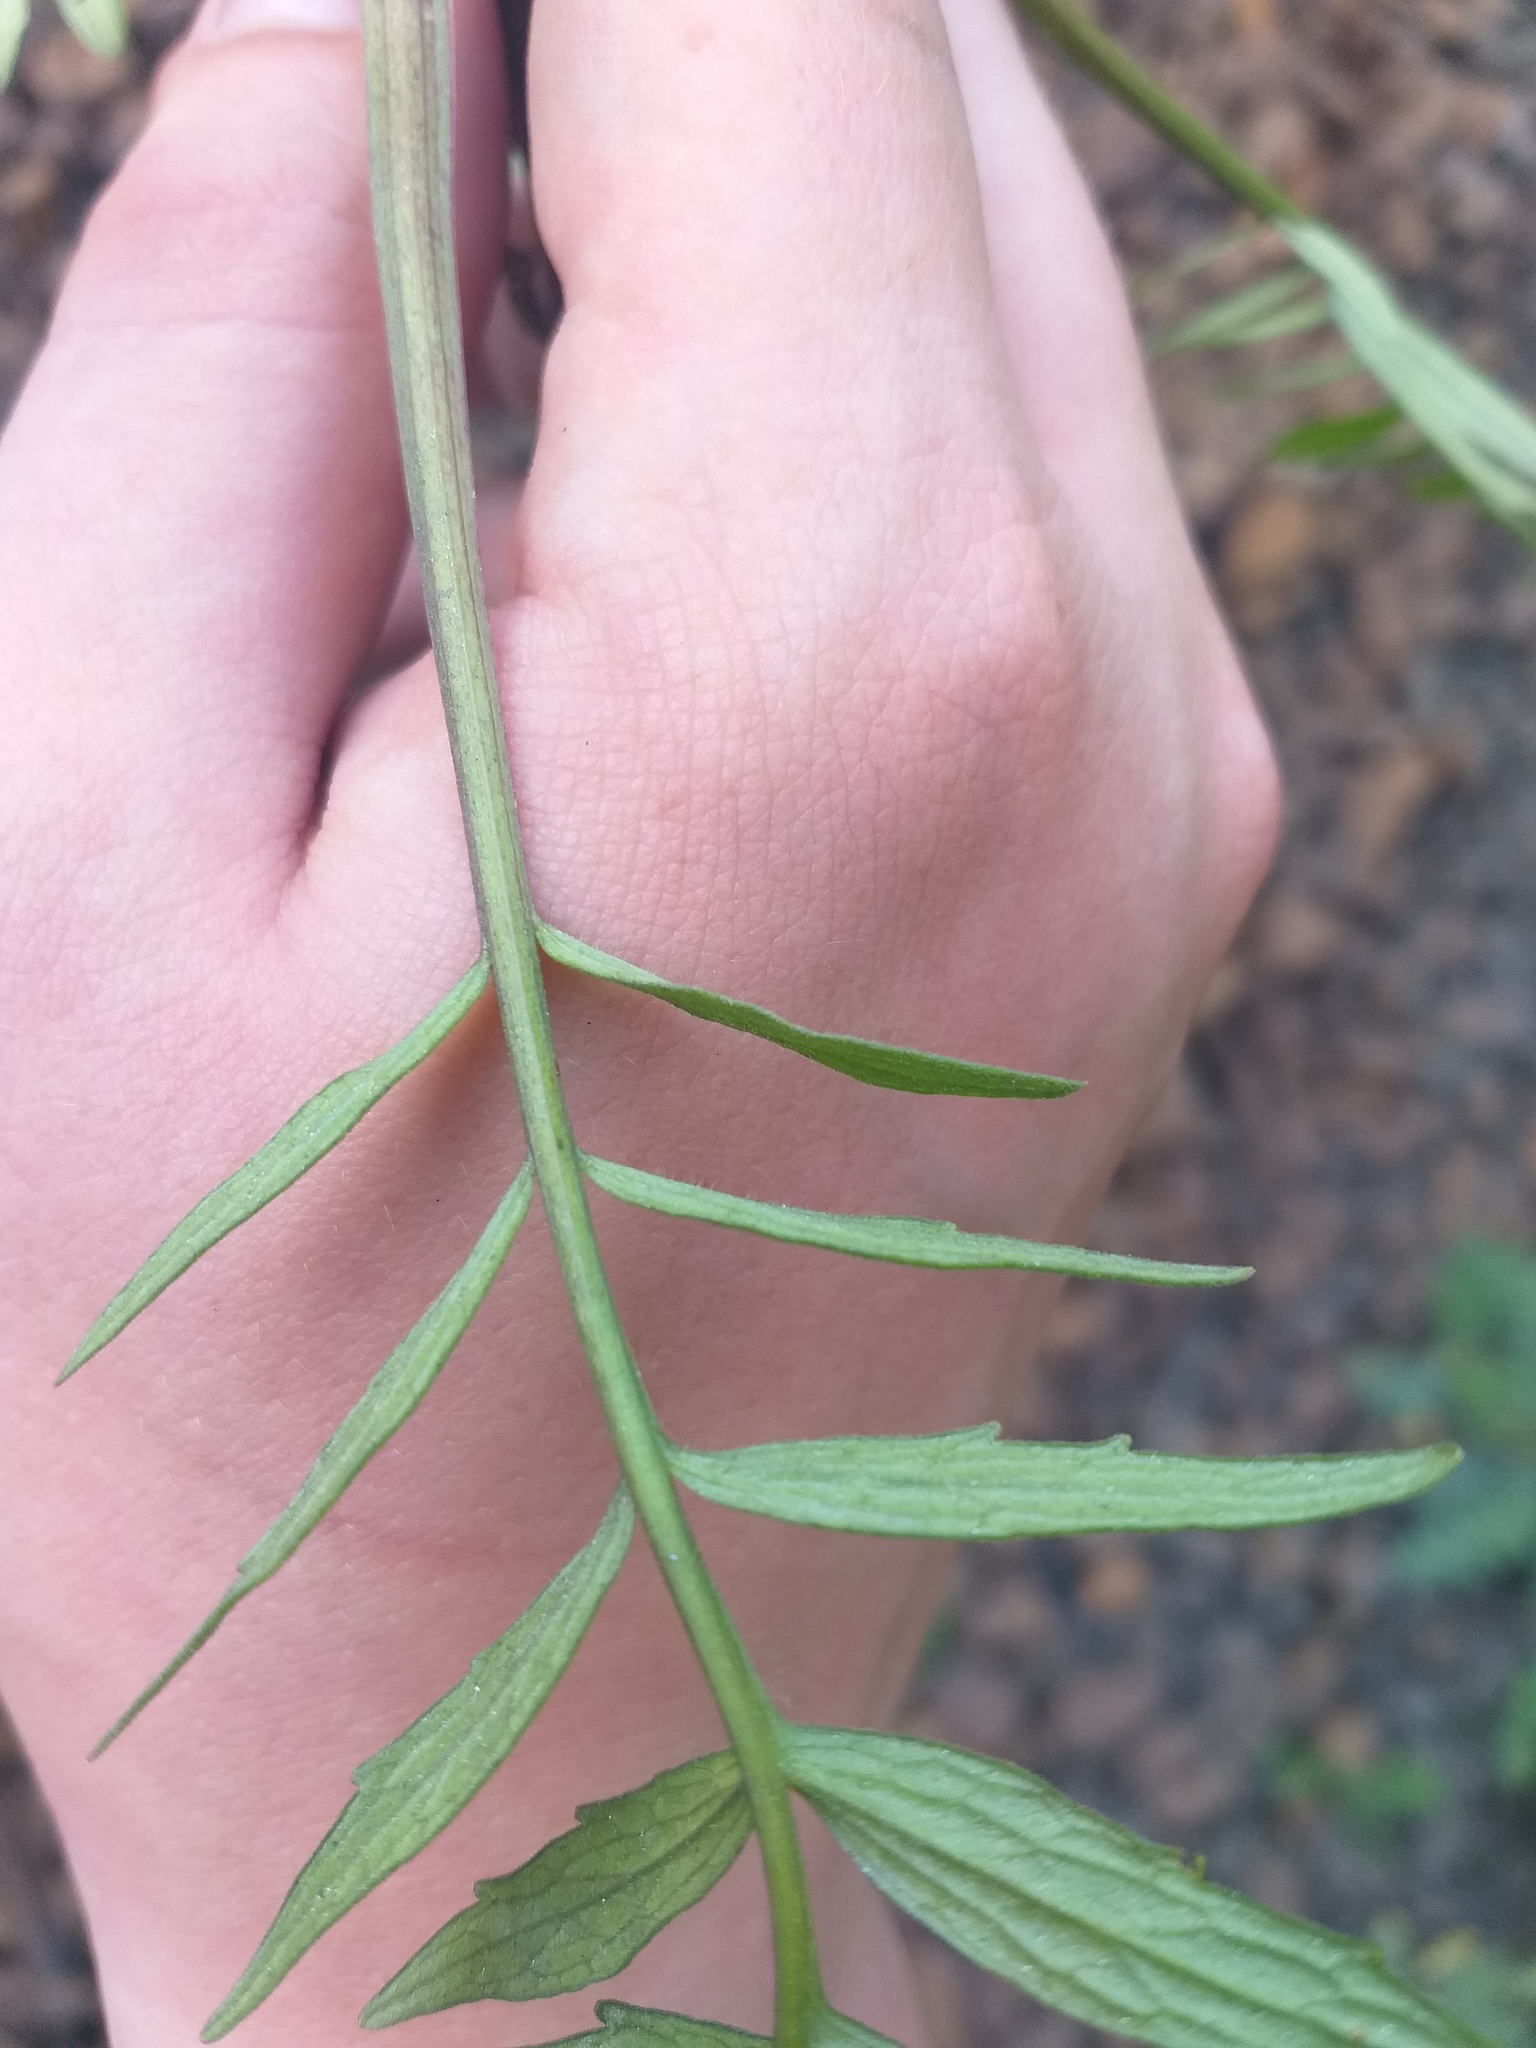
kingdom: Plantae
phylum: Tracheophyta
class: Magnoliopsida
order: Dipsacales
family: Caprifoliaceae
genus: Valeriana
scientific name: Valeriana officinalis
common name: Common valerian
